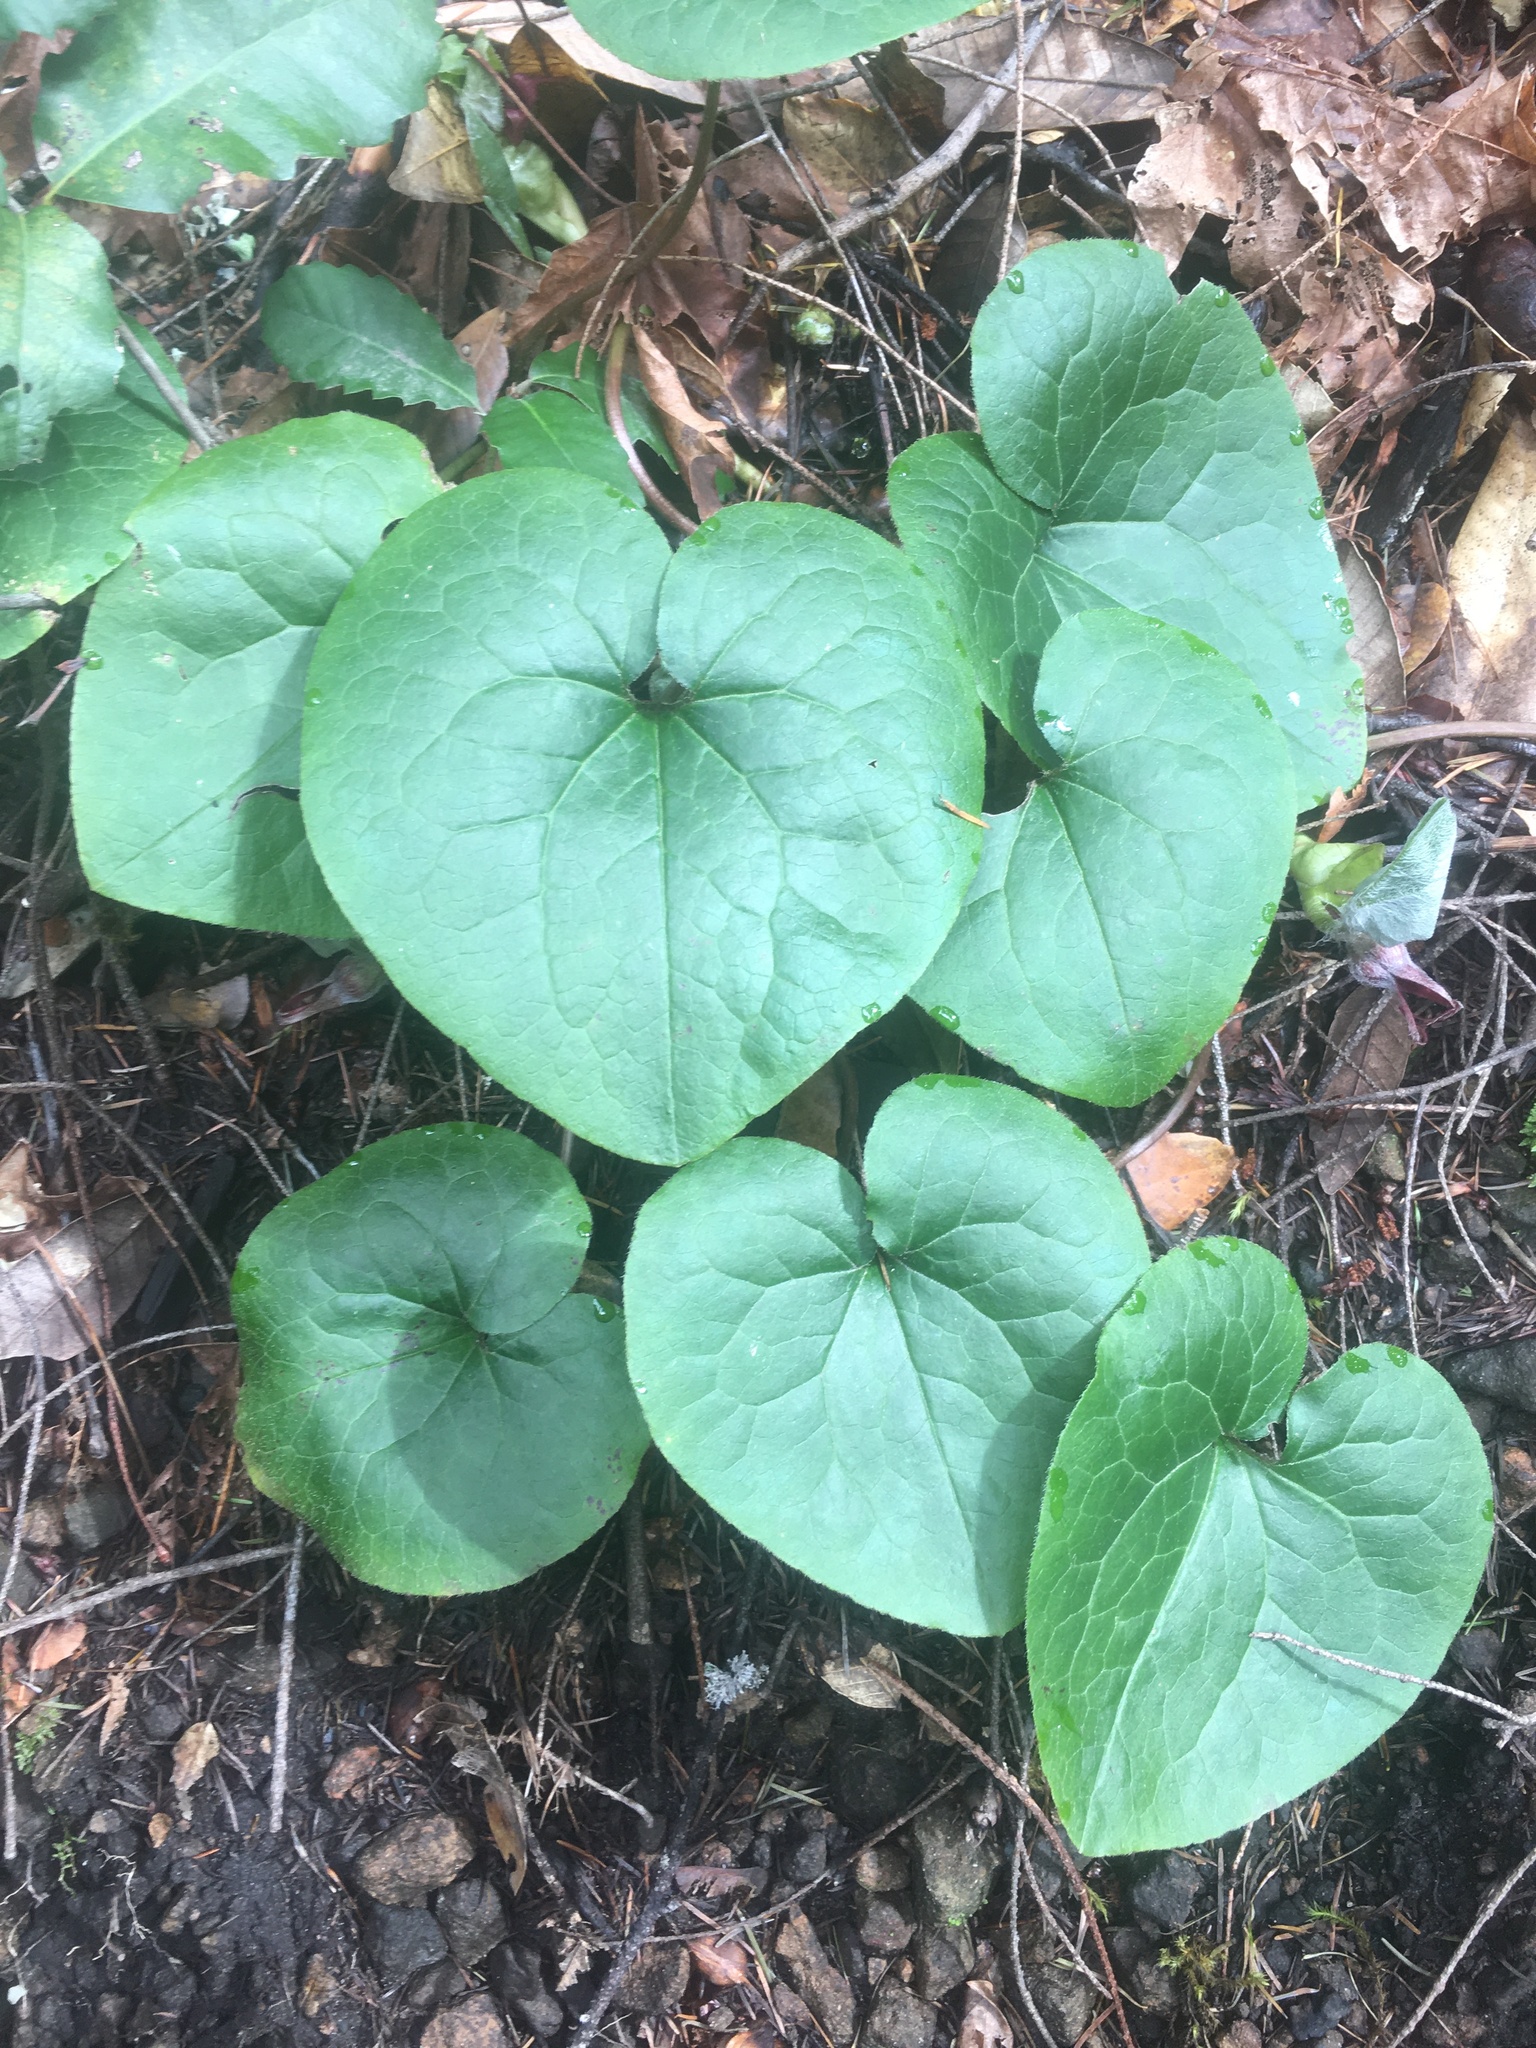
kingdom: Plantae
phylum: Tracheophyta
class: Magnoliopsida
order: Piperales
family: Aristolochiaceae
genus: Asarum
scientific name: Asarum caudatum
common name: Wild ginger
